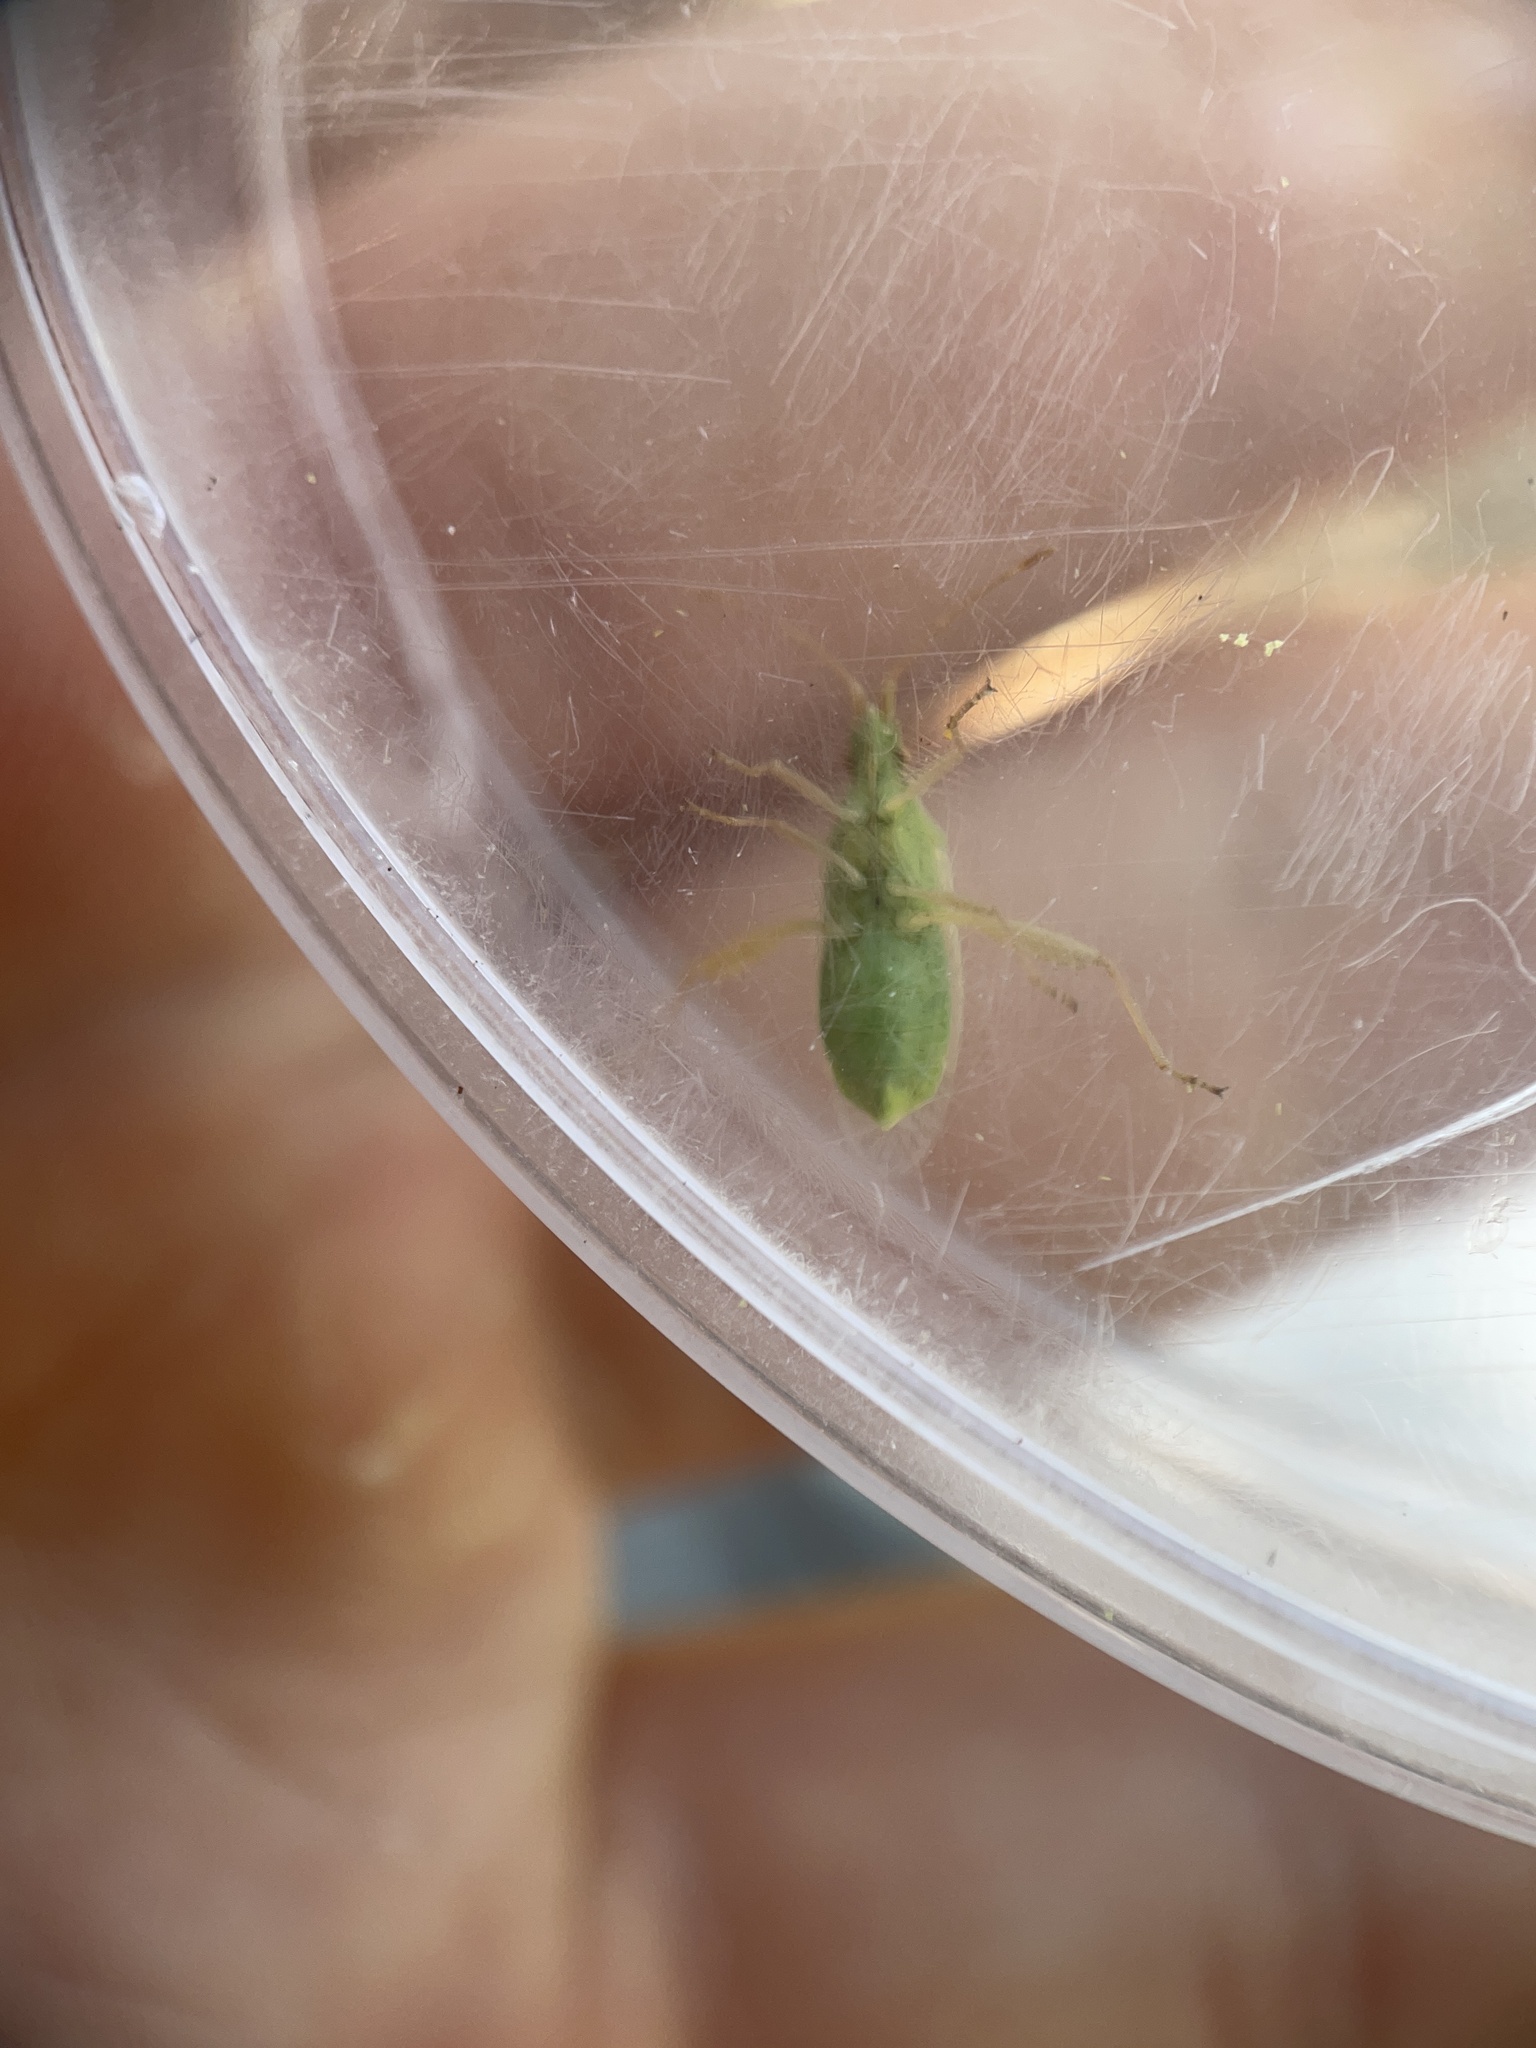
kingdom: Animalia
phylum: Arthropoda
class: Insecta
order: Hemiptera
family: Rhopalidae
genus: Harmostes
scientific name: Harmostes reflexulus
